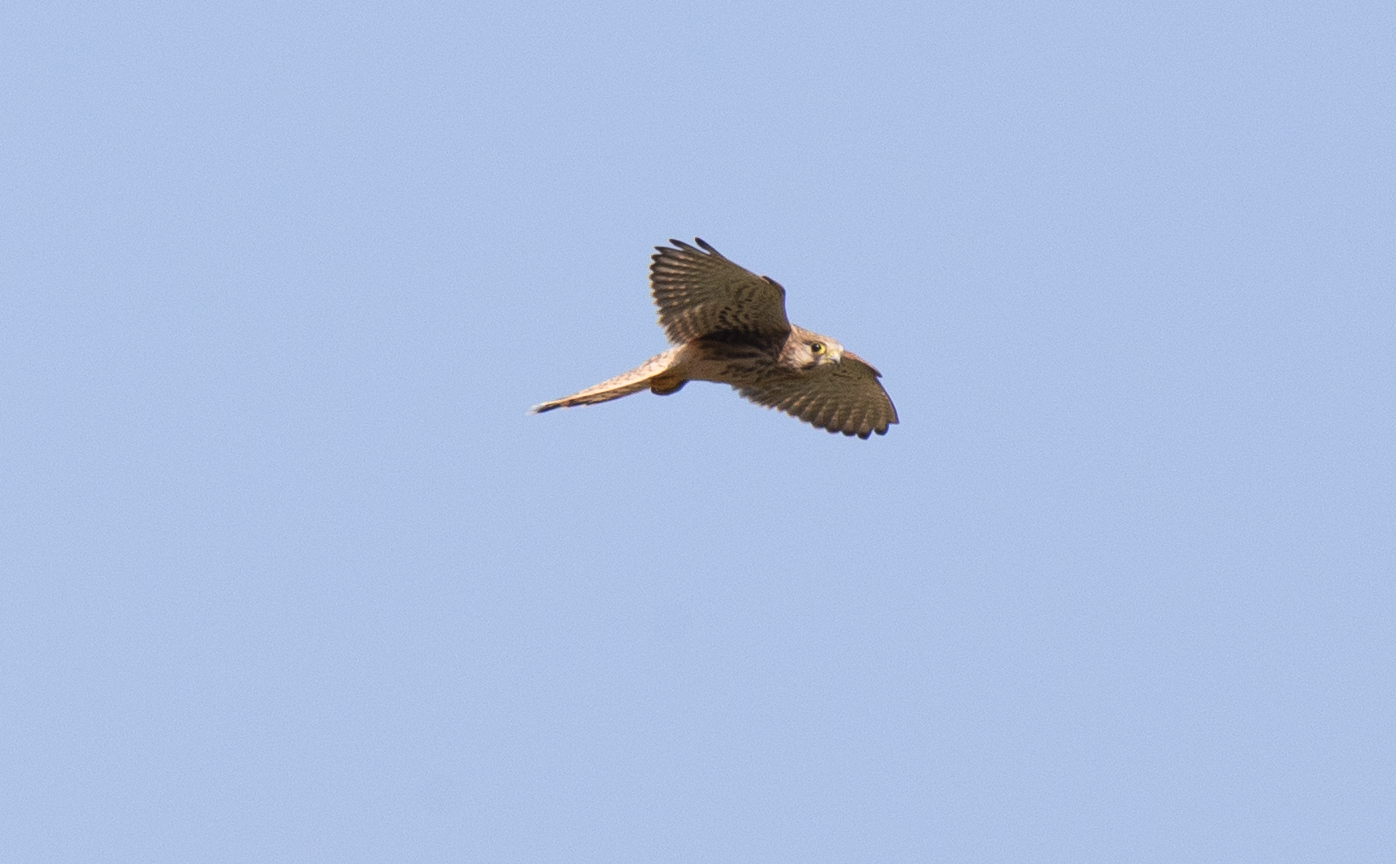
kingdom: Animalia
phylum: Chordata
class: Aves
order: Falconiformes
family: Falconidae
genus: Falco
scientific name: Falco tinnunculus
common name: Common kestrel
